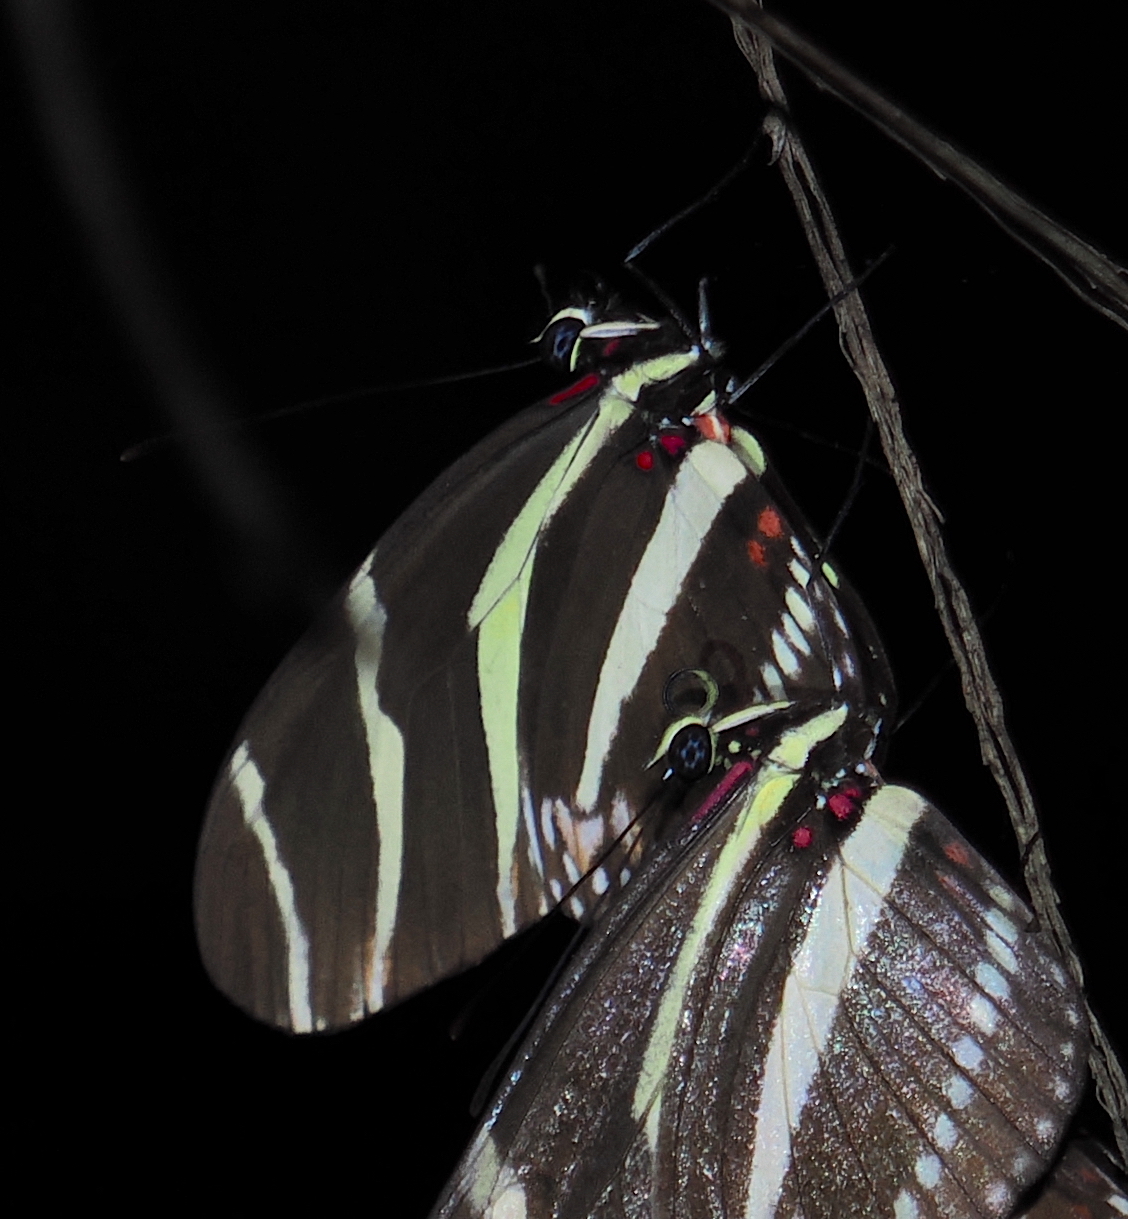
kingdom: Animalia
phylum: Arthropoda
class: Insecta
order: Lepidoptera
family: Nymphalidae
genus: Heliconius
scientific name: Heliconius charithonia
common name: Zebra long wing
